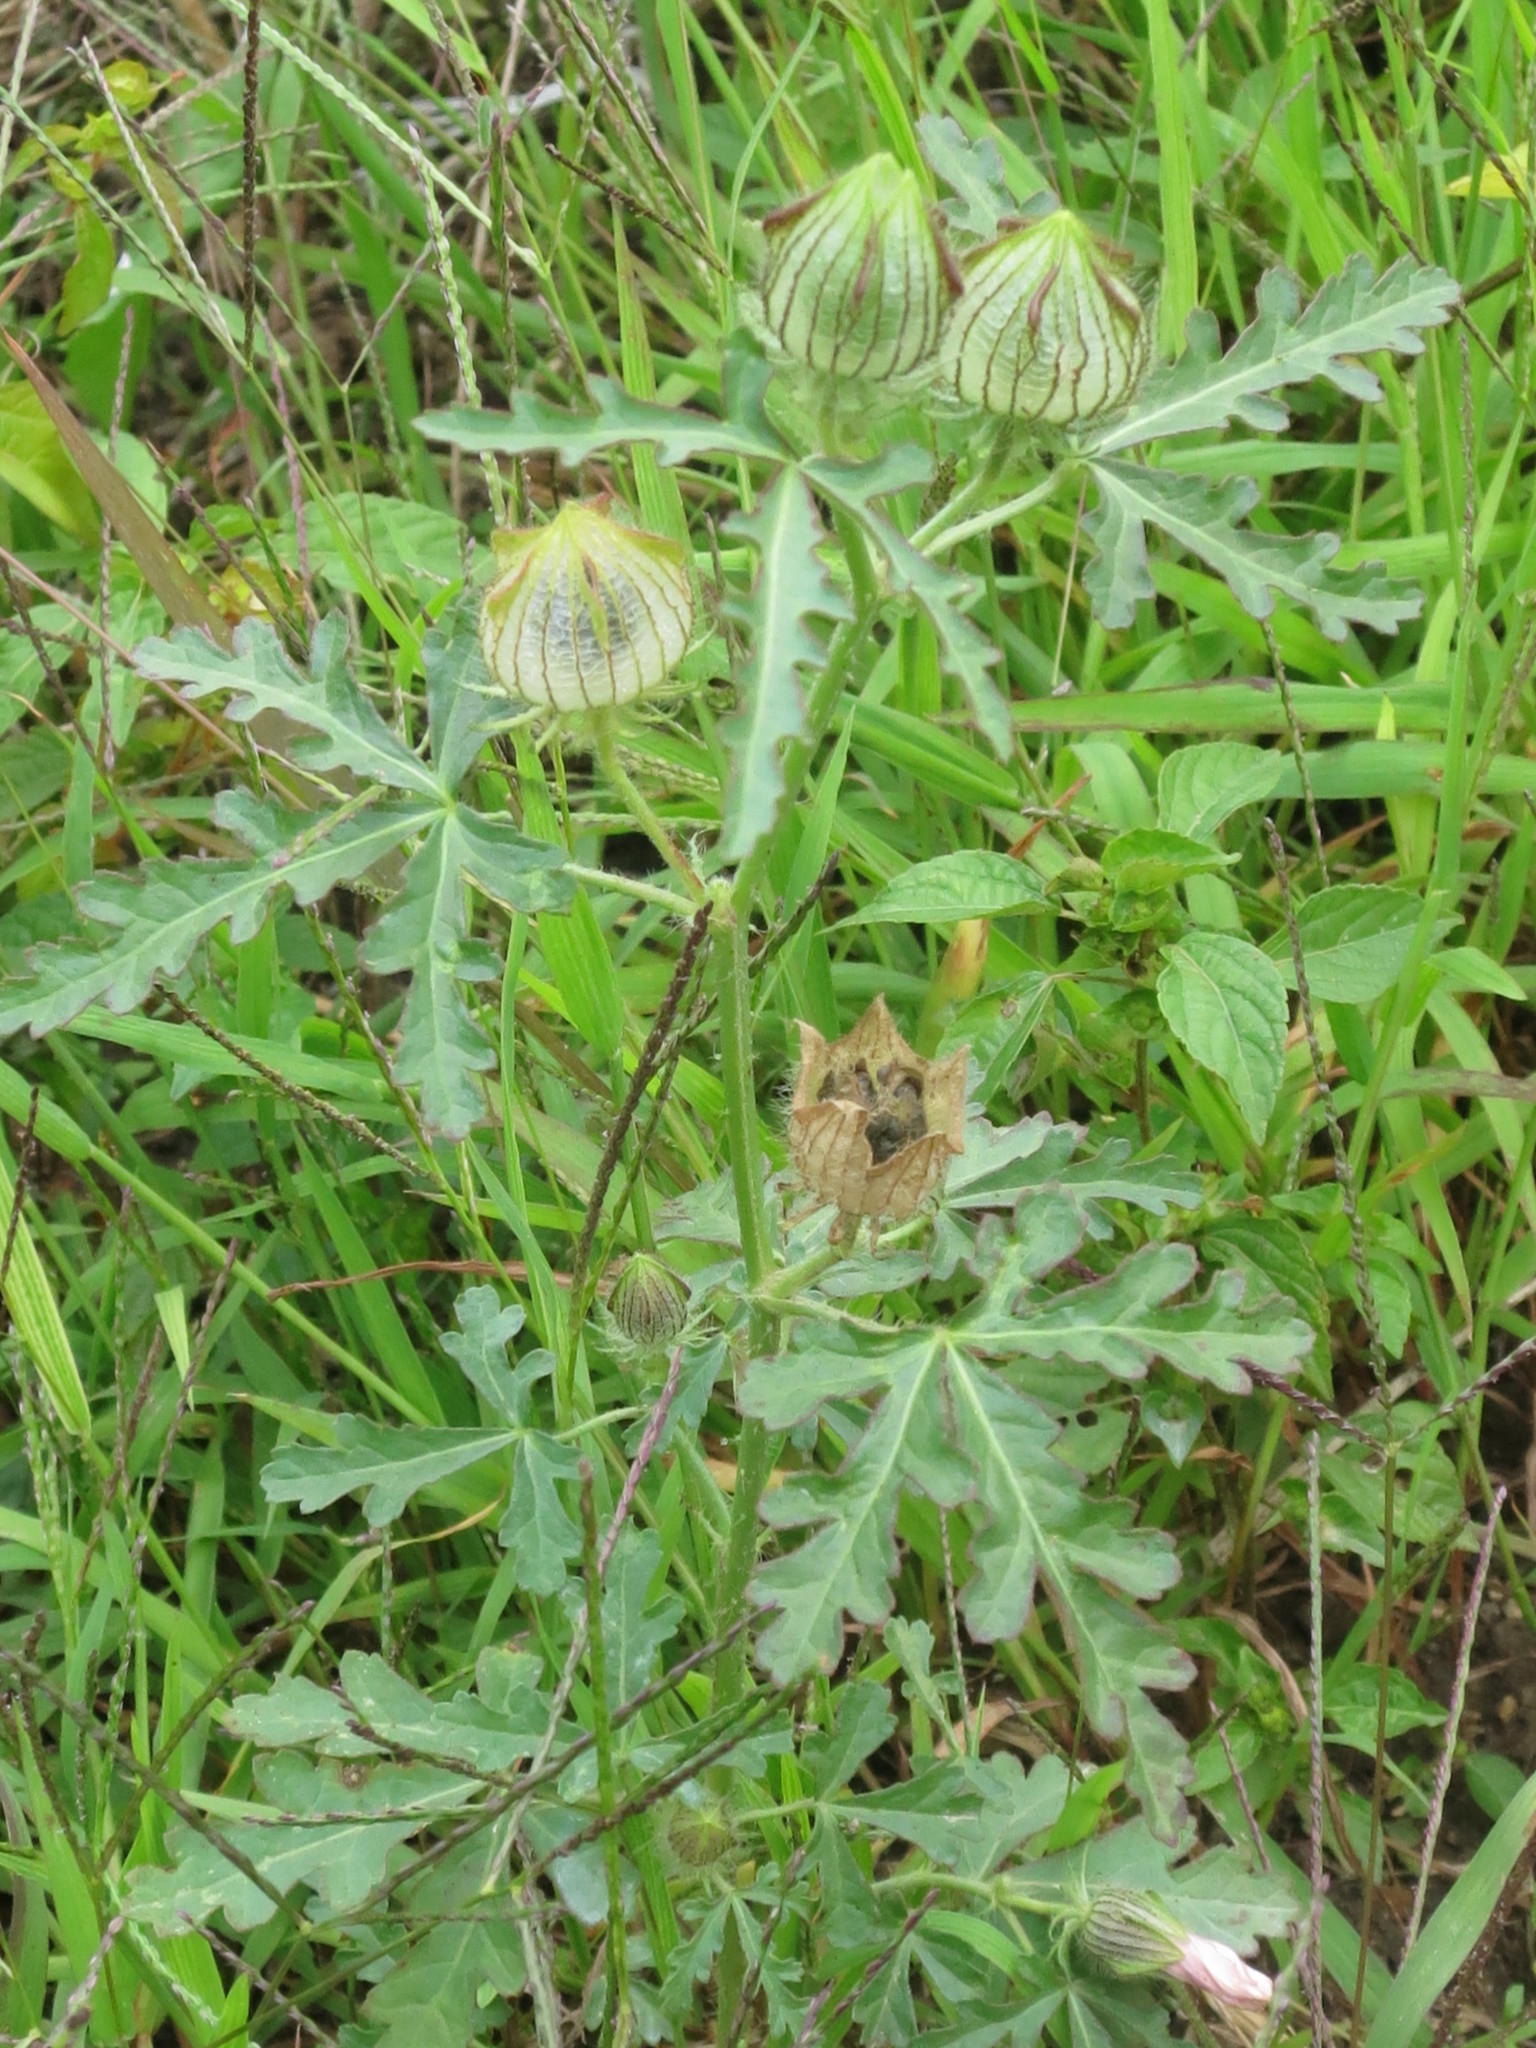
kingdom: Plantae
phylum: Tracheophyta
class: Magnoliopsida
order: Malvales
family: Malvaceae
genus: Hibiscus
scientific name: Hibiscus trionum
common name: Bladder ketmia
